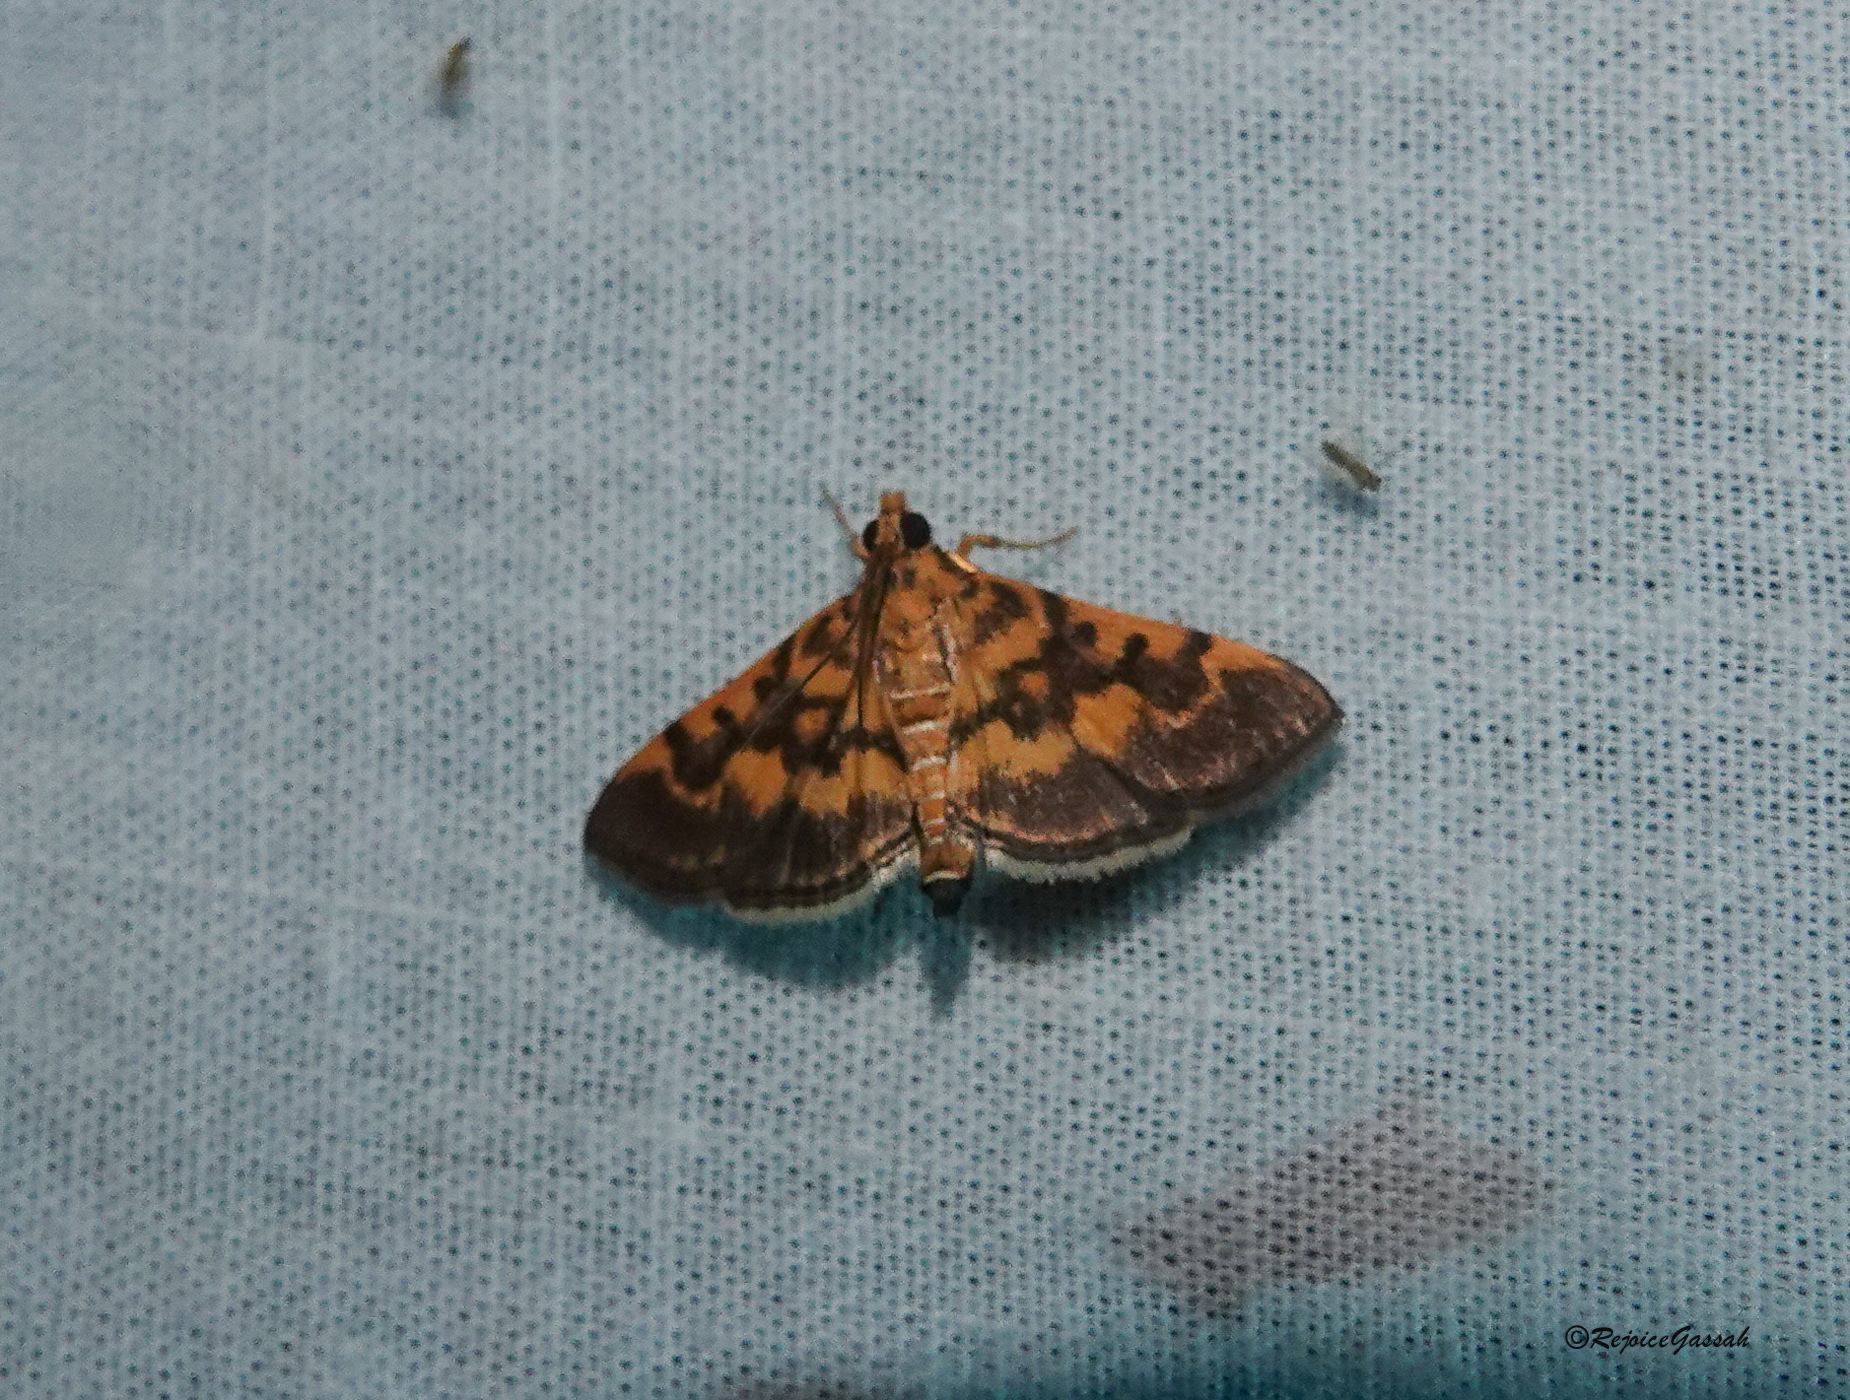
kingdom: Animalia
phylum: Arthropoda
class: Insecta
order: Lepidoptera
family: Crambidae
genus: Omiodes
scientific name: Omiodes diemenalis
